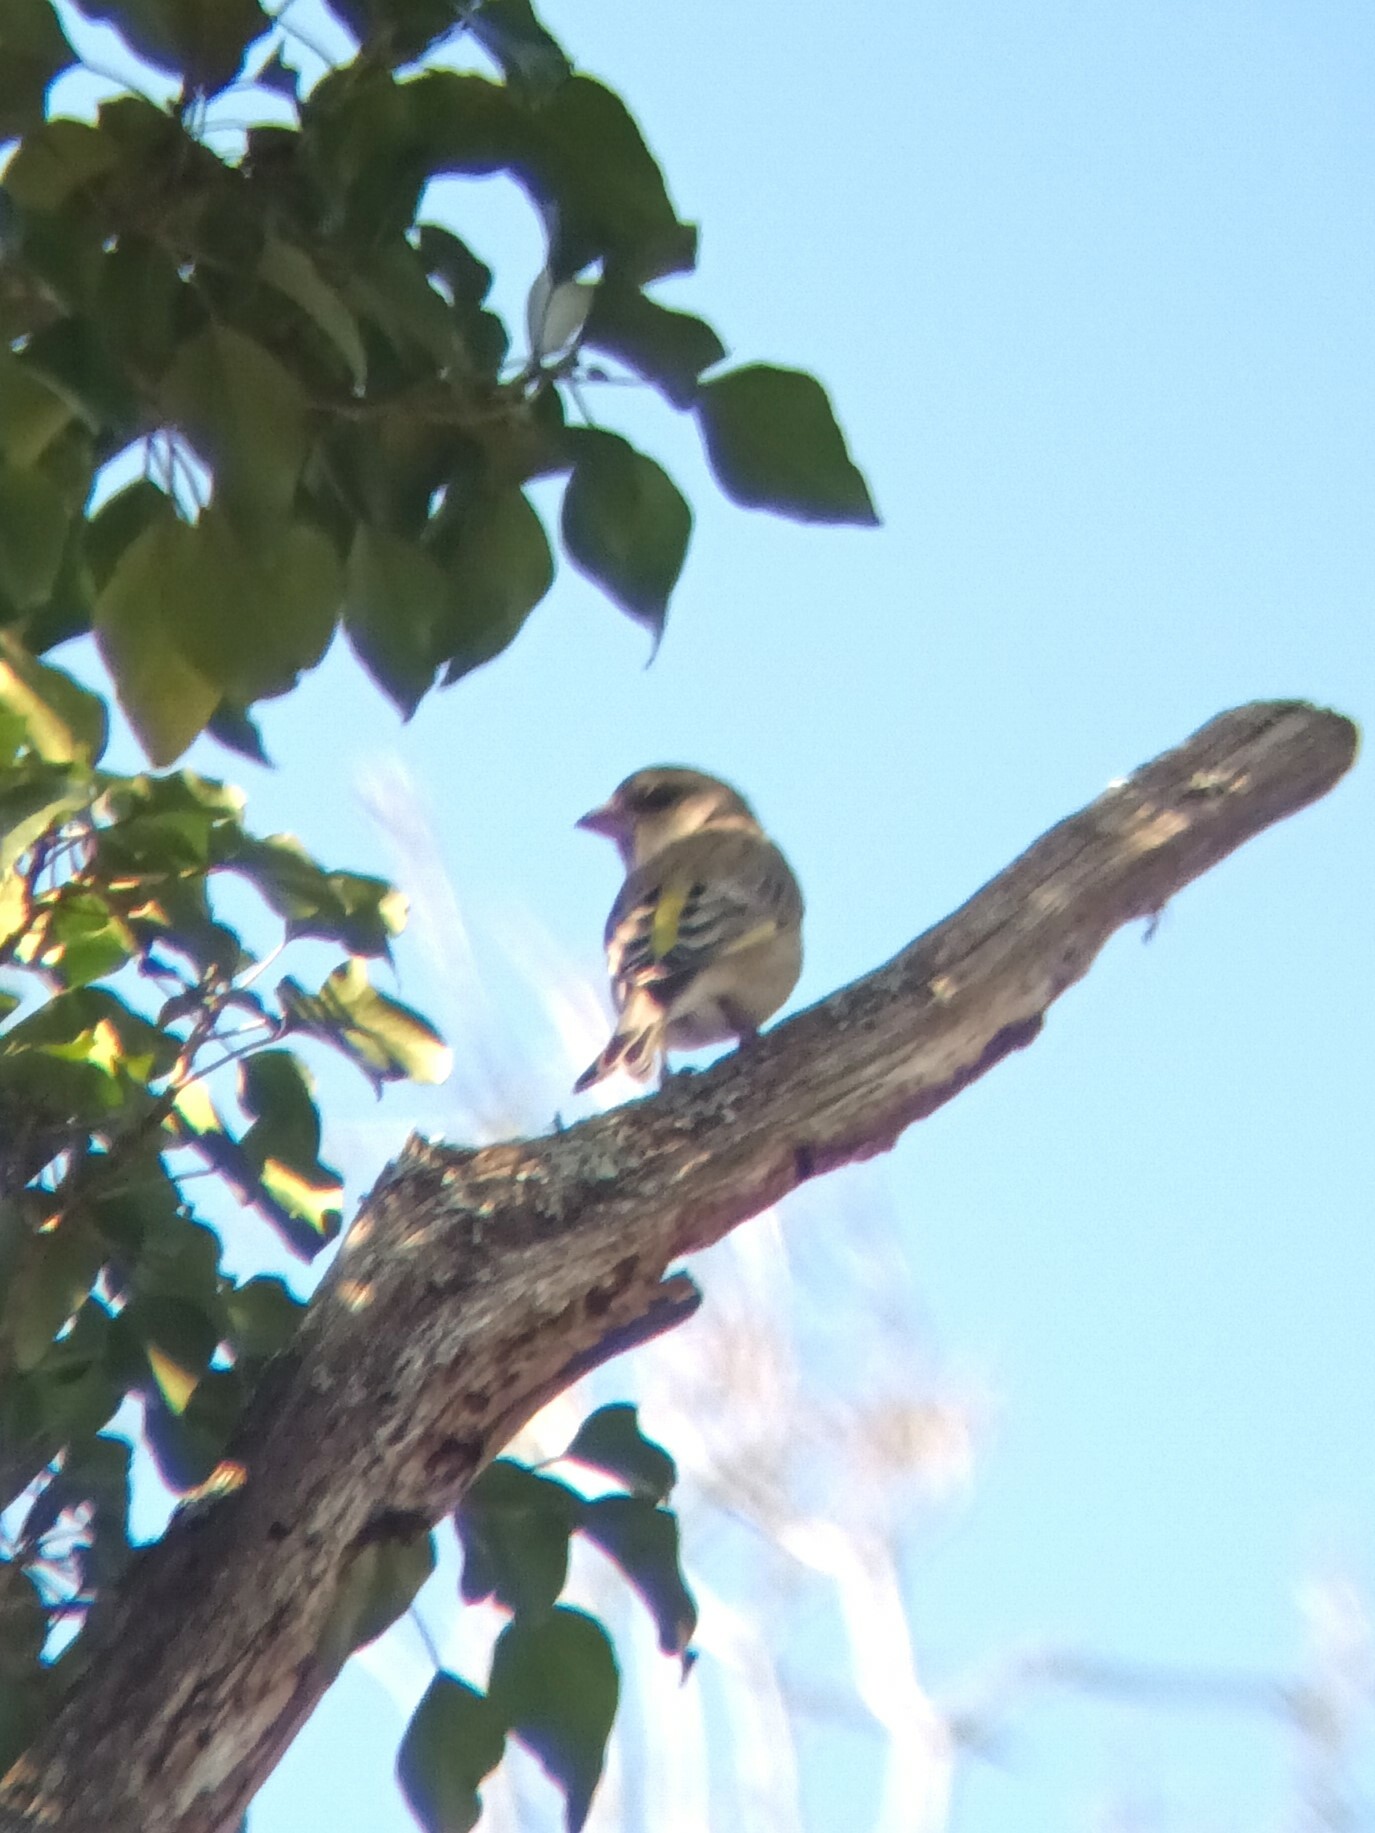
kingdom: Plantae
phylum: Tracheophyta
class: Liliopsida
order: Poales
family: Poaceae
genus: Chloris
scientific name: Chloris chloris
